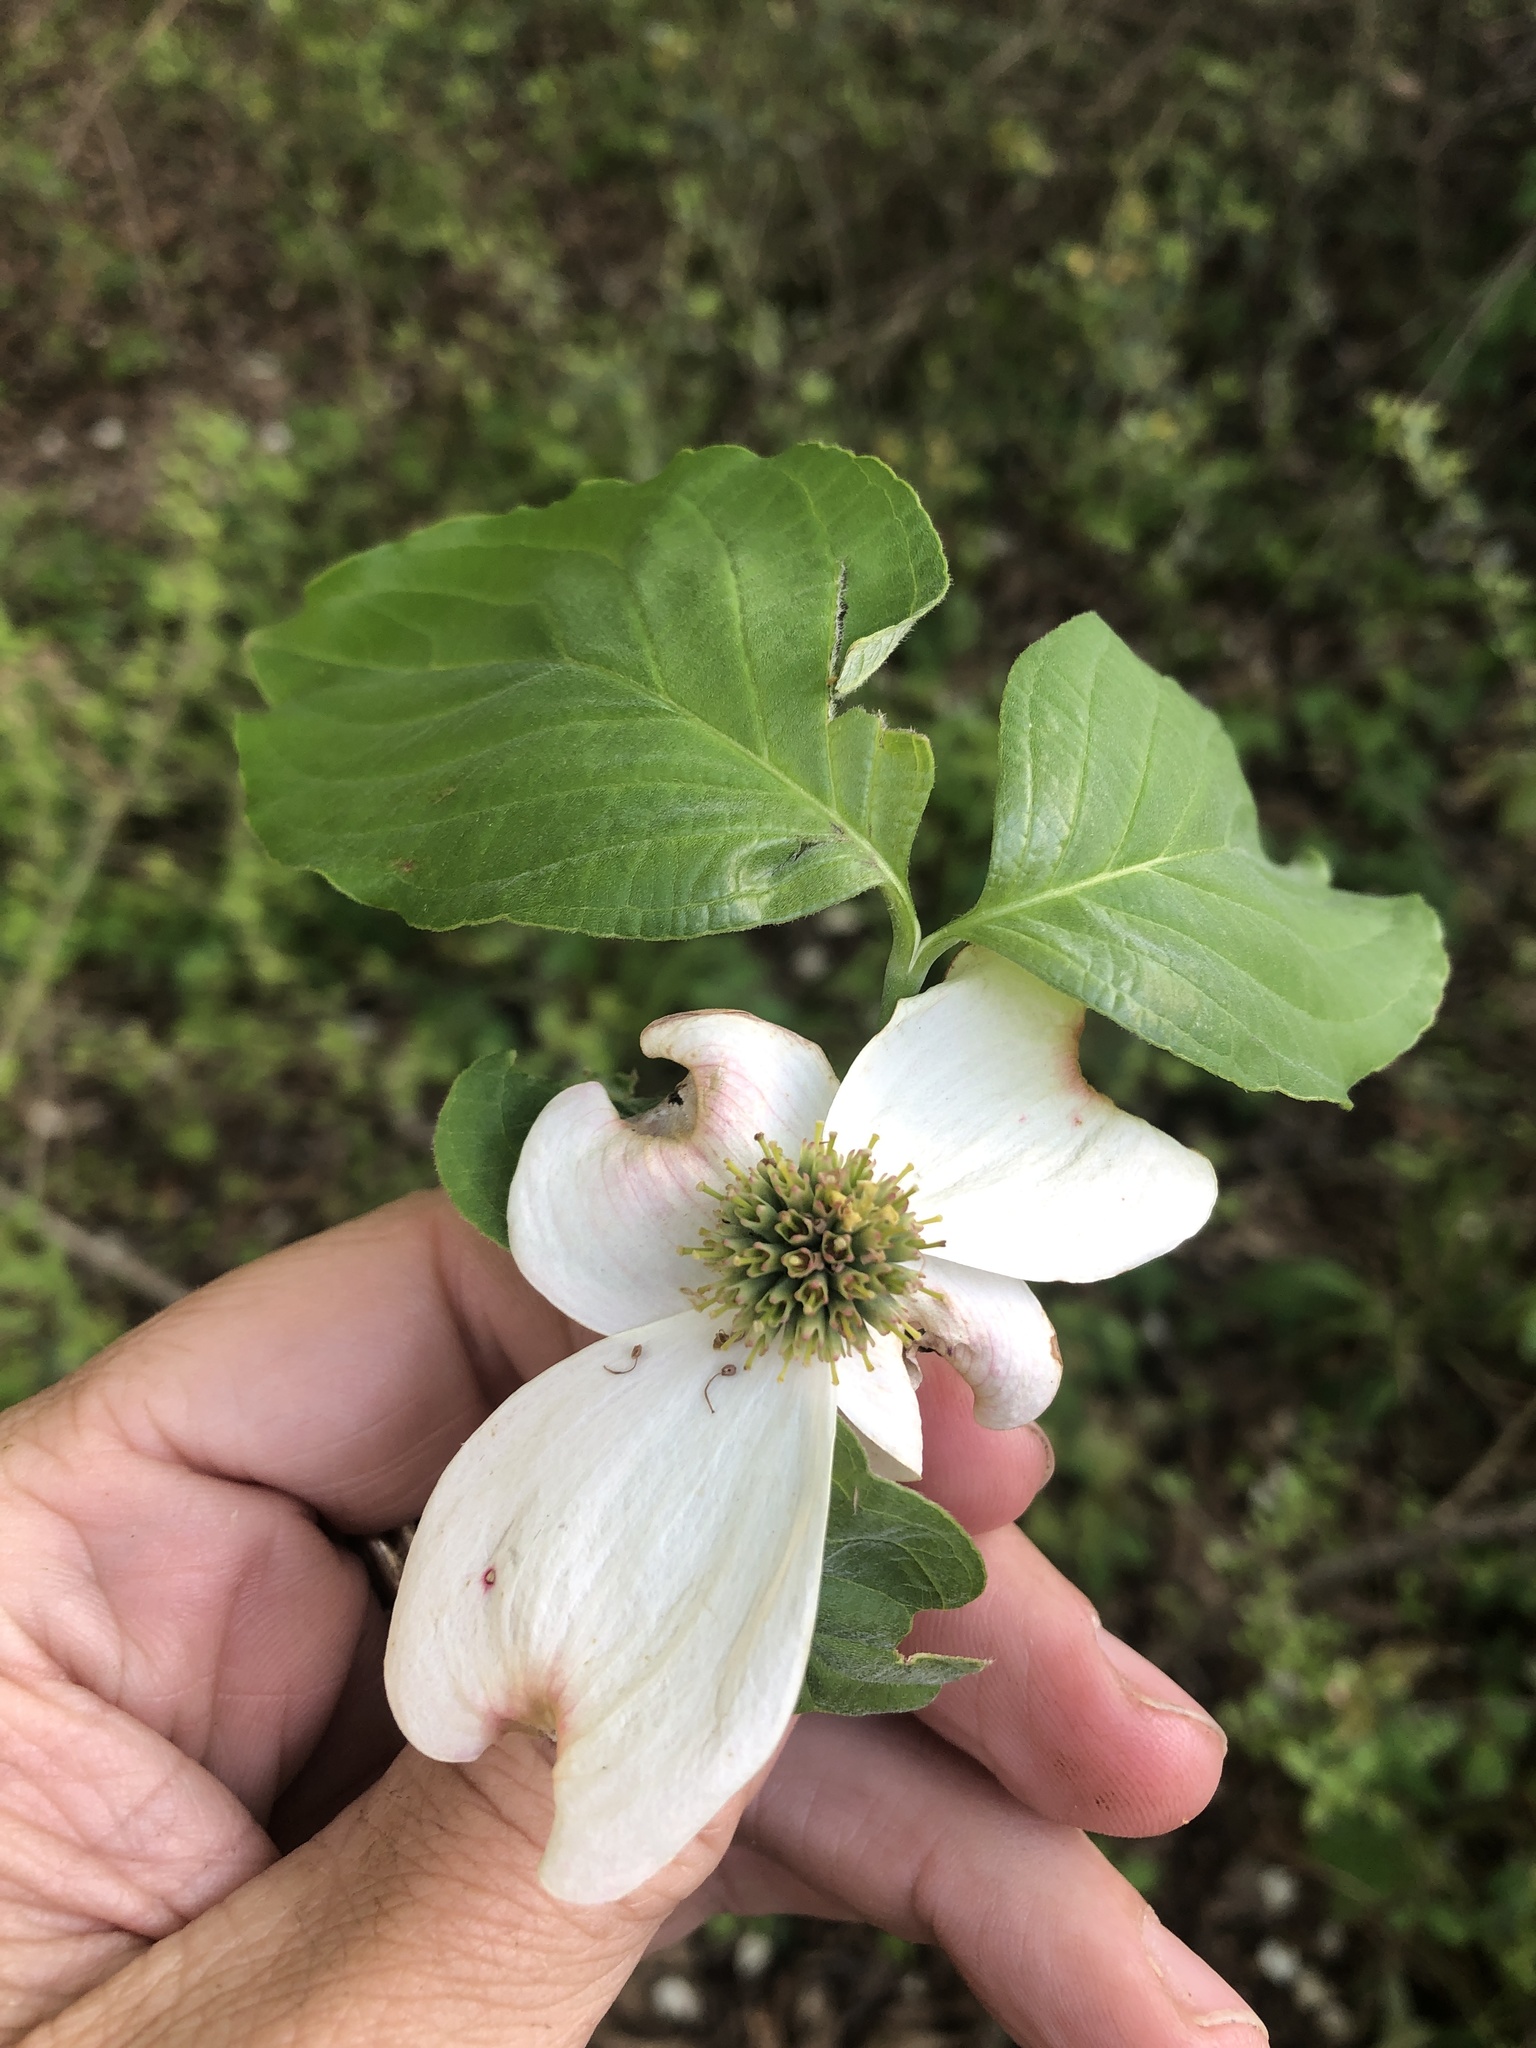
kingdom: Plantae
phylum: Tracheophyta
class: Magnoliopsida
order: Cornales
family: Cornaceae
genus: Cornus
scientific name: Cornus florida
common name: Flowering dogwood
